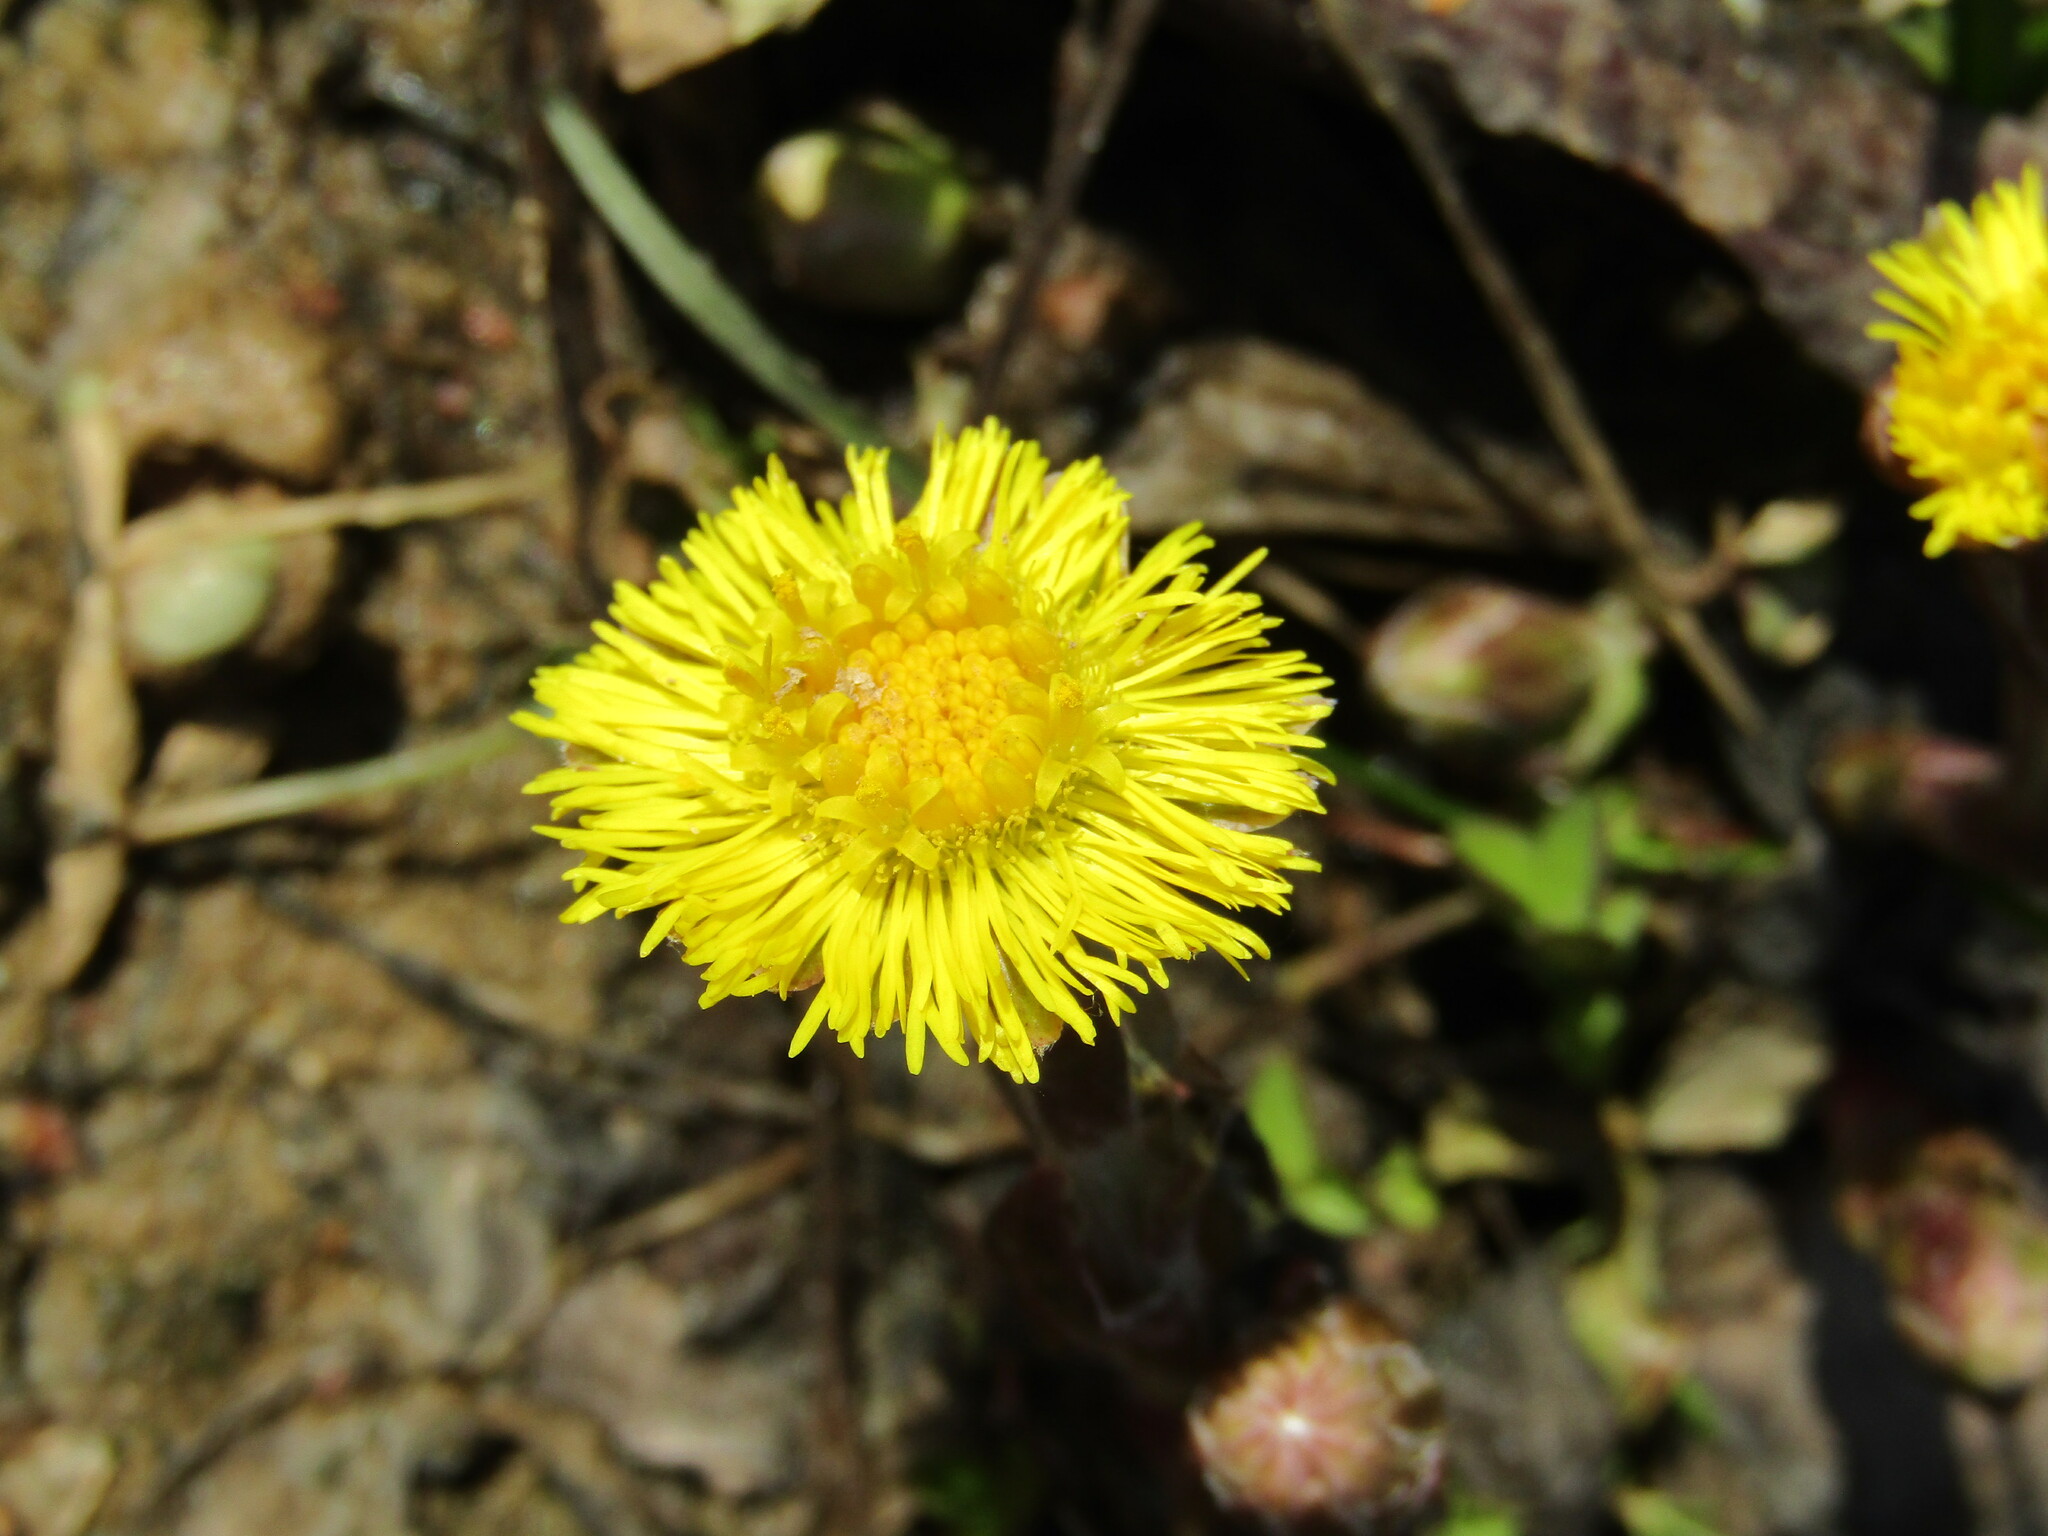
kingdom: Plantae
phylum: Tracheophyta
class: Magnoliopsida
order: Asterales
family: Asteraceae
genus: Tussilago
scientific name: Tussilago farfara
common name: Coltsfoot
